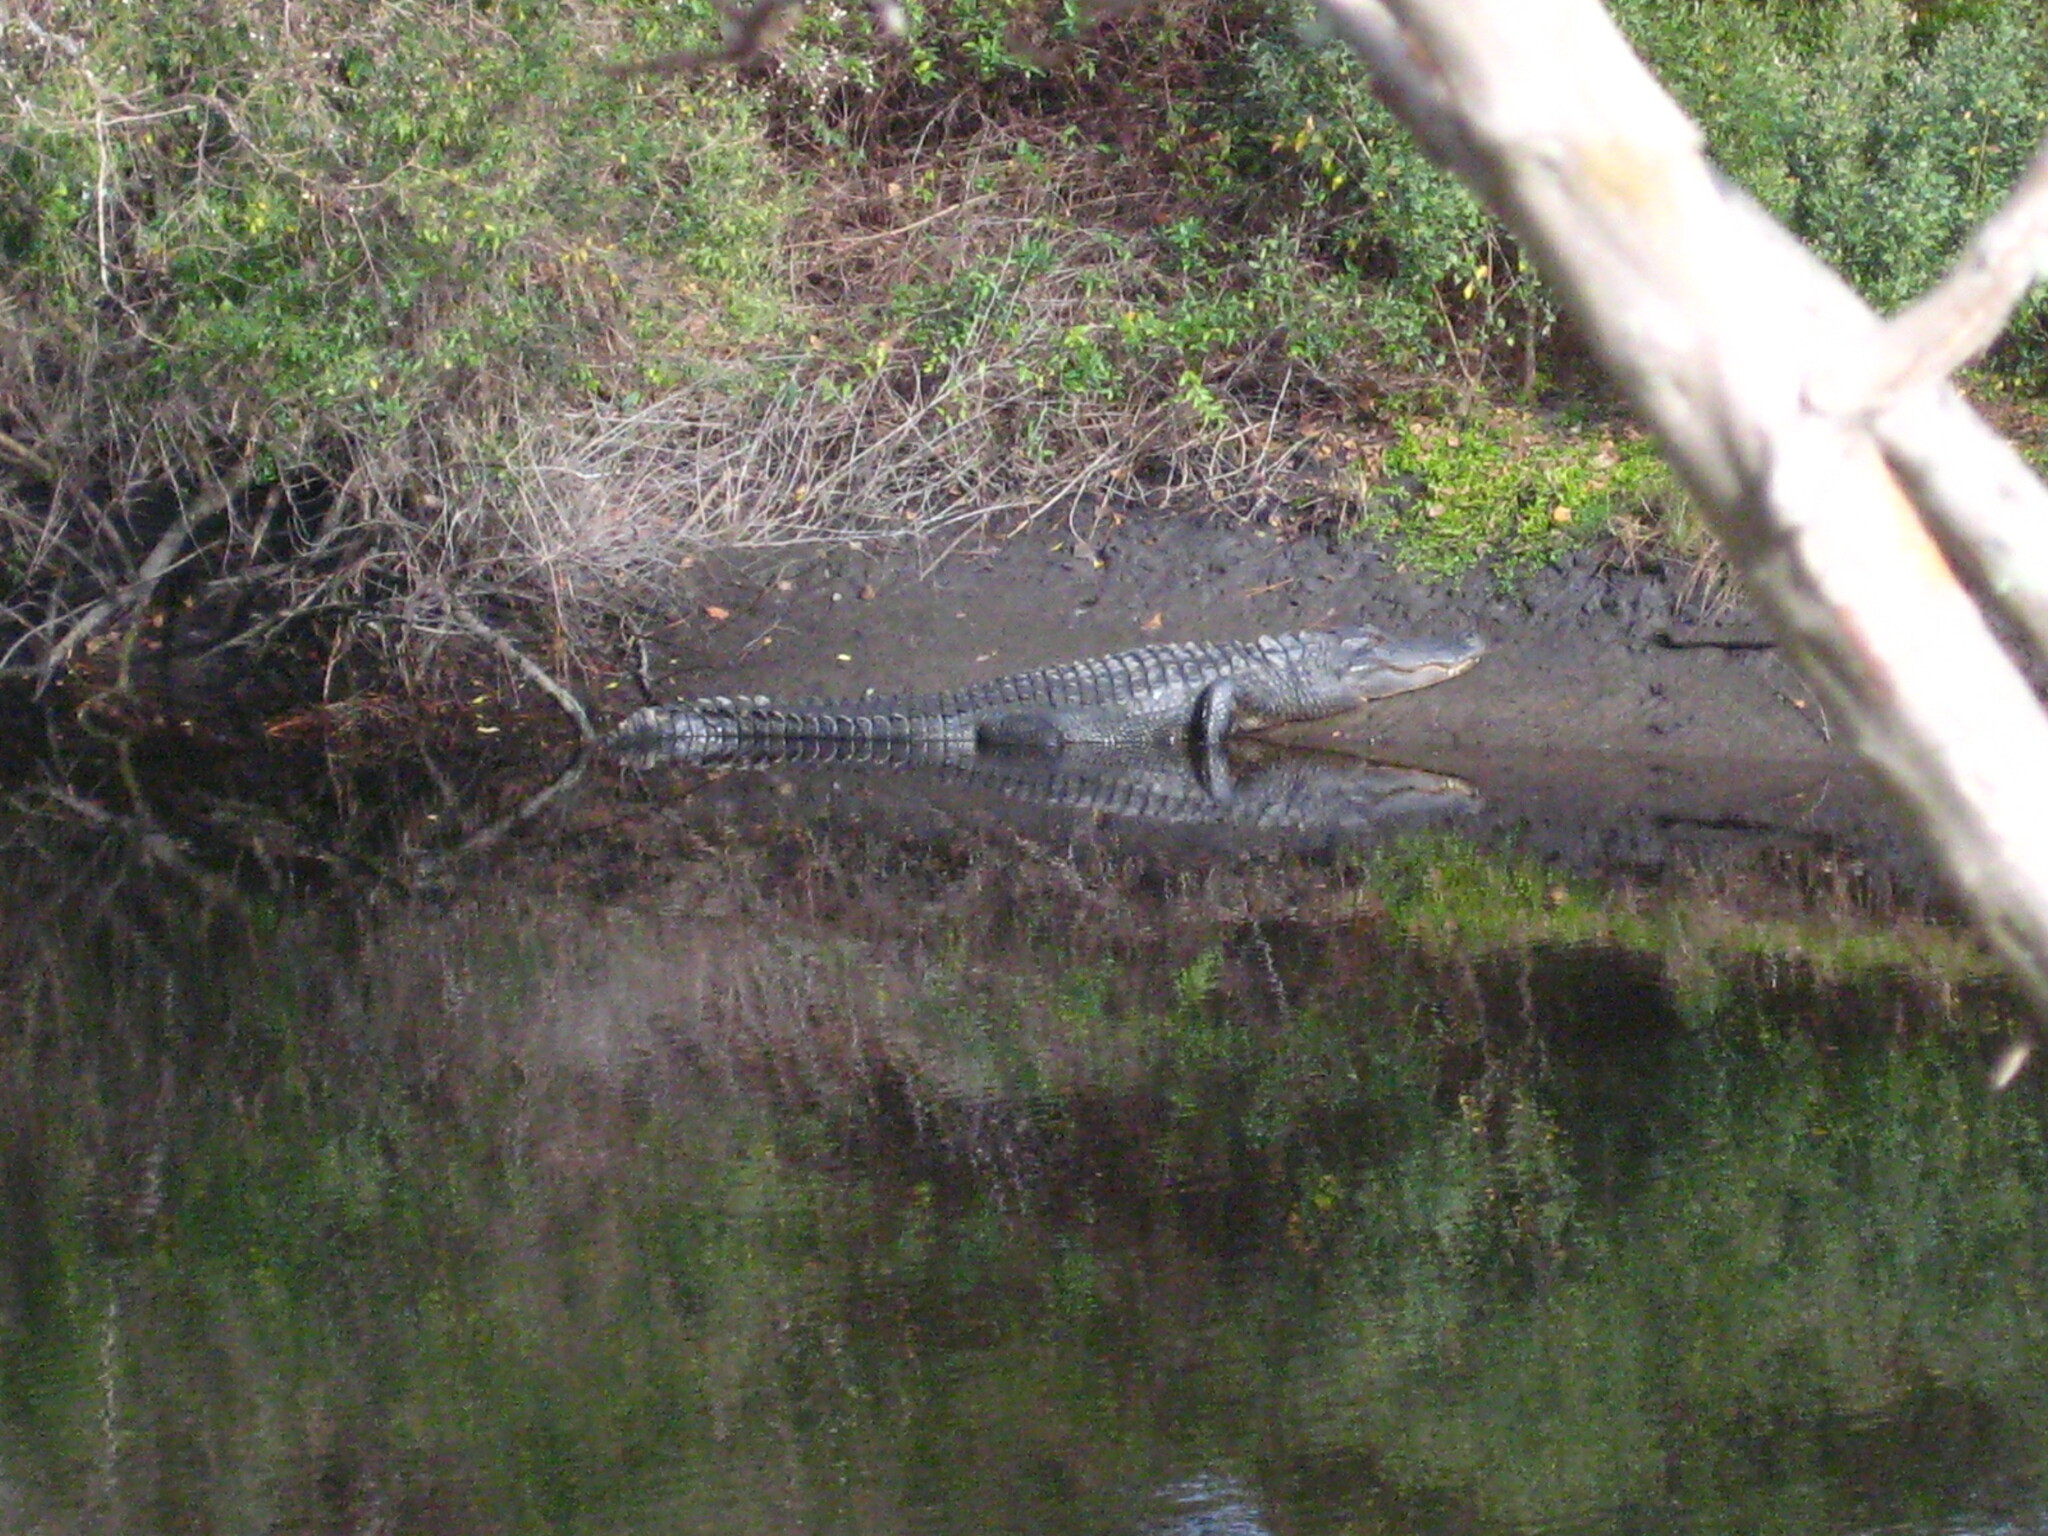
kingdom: Animalia
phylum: Chordata
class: Crocodylia
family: Alligatoridae
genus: Alligator
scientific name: Alligator mississippiensis
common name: American alligator
